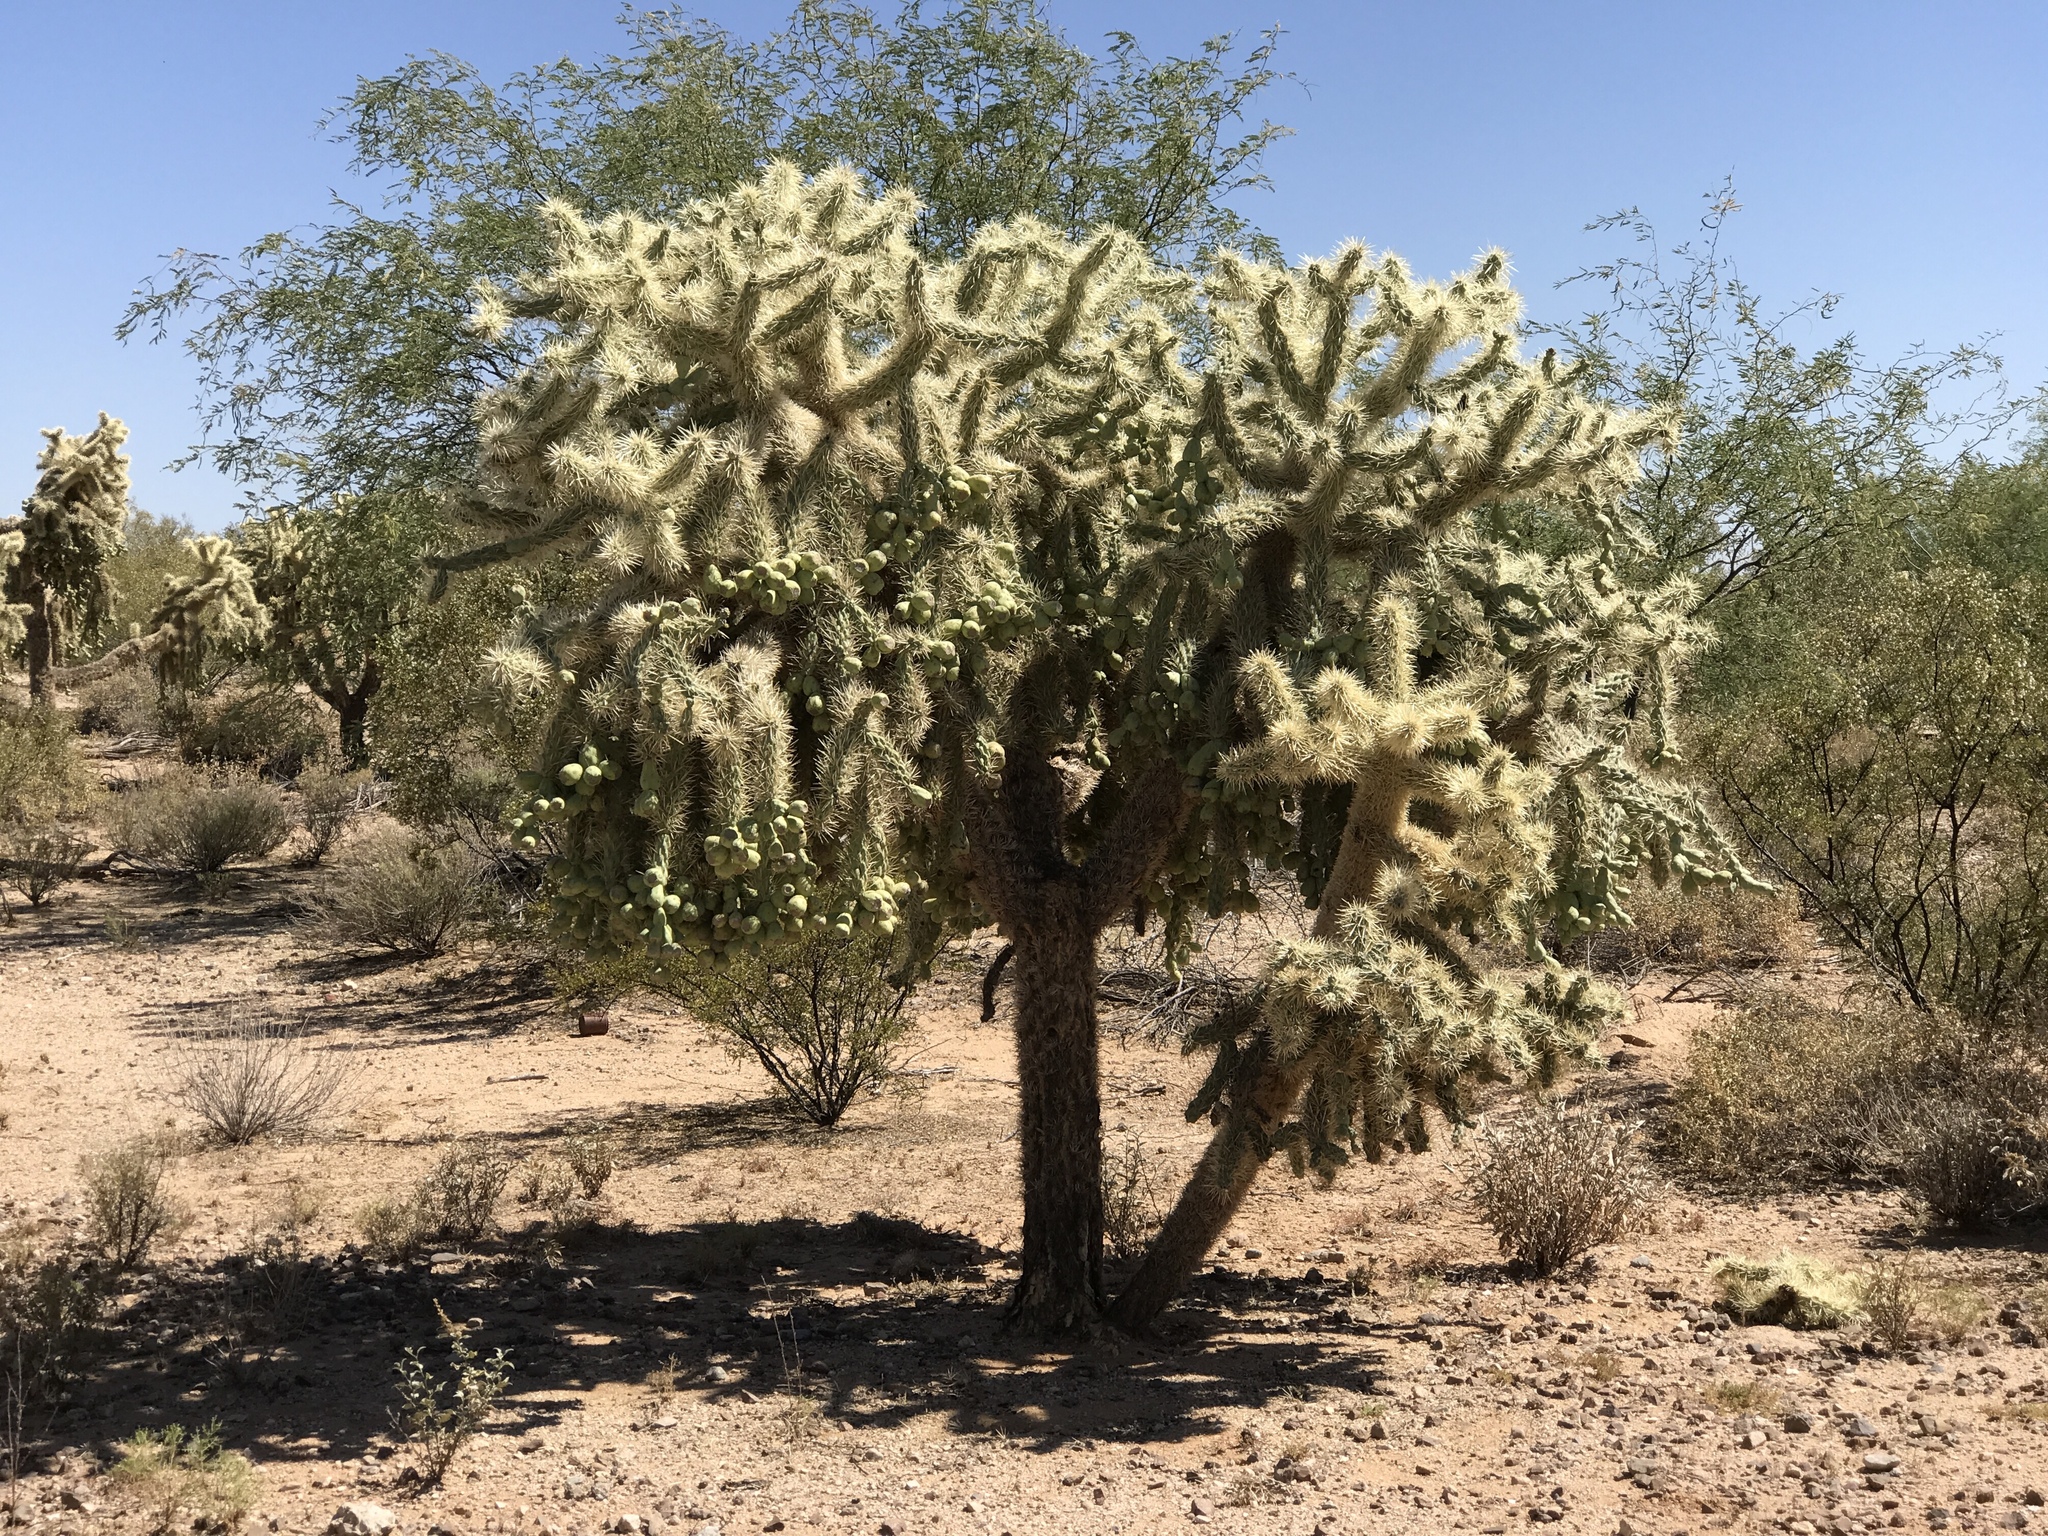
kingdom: Plantae
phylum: Tracheophyta
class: Magnoliopsida
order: Caryophyllales
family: Cactaceae
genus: Cylindropuntia
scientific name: Cylindropuntia fulgida
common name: Jumping cholla
